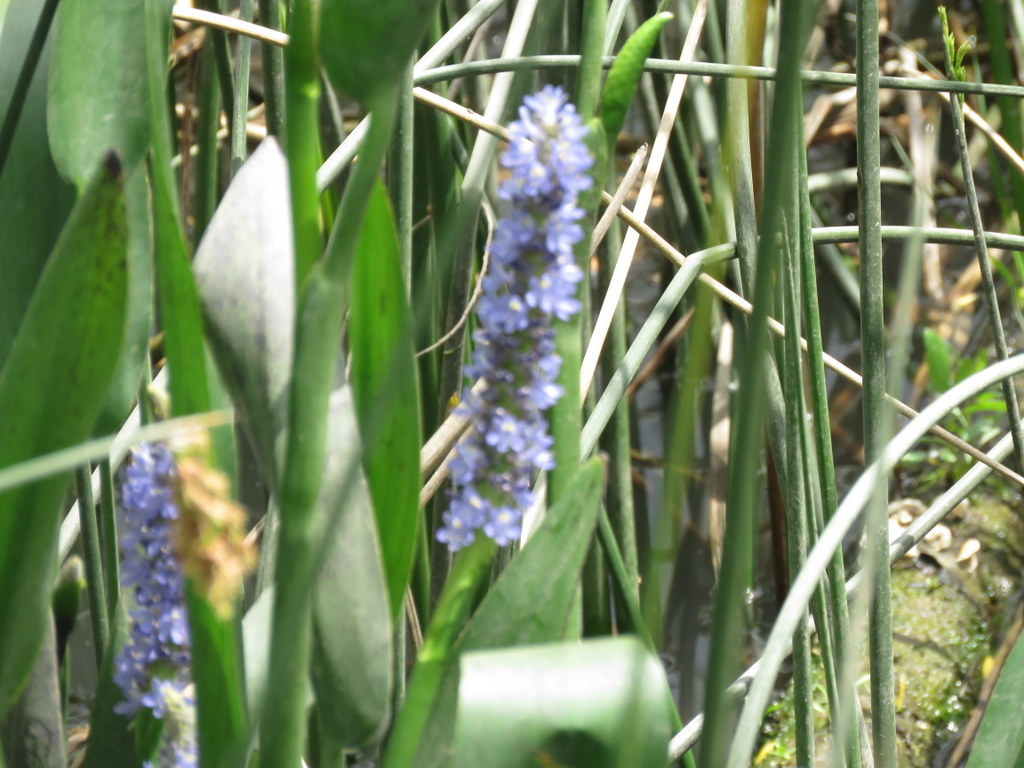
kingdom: Plantae
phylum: Tracheophyta
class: Liliopsida
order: Commelinales
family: Pontederiaceae
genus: Pontederia
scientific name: Pontederia cordata
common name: Pickerelweed
